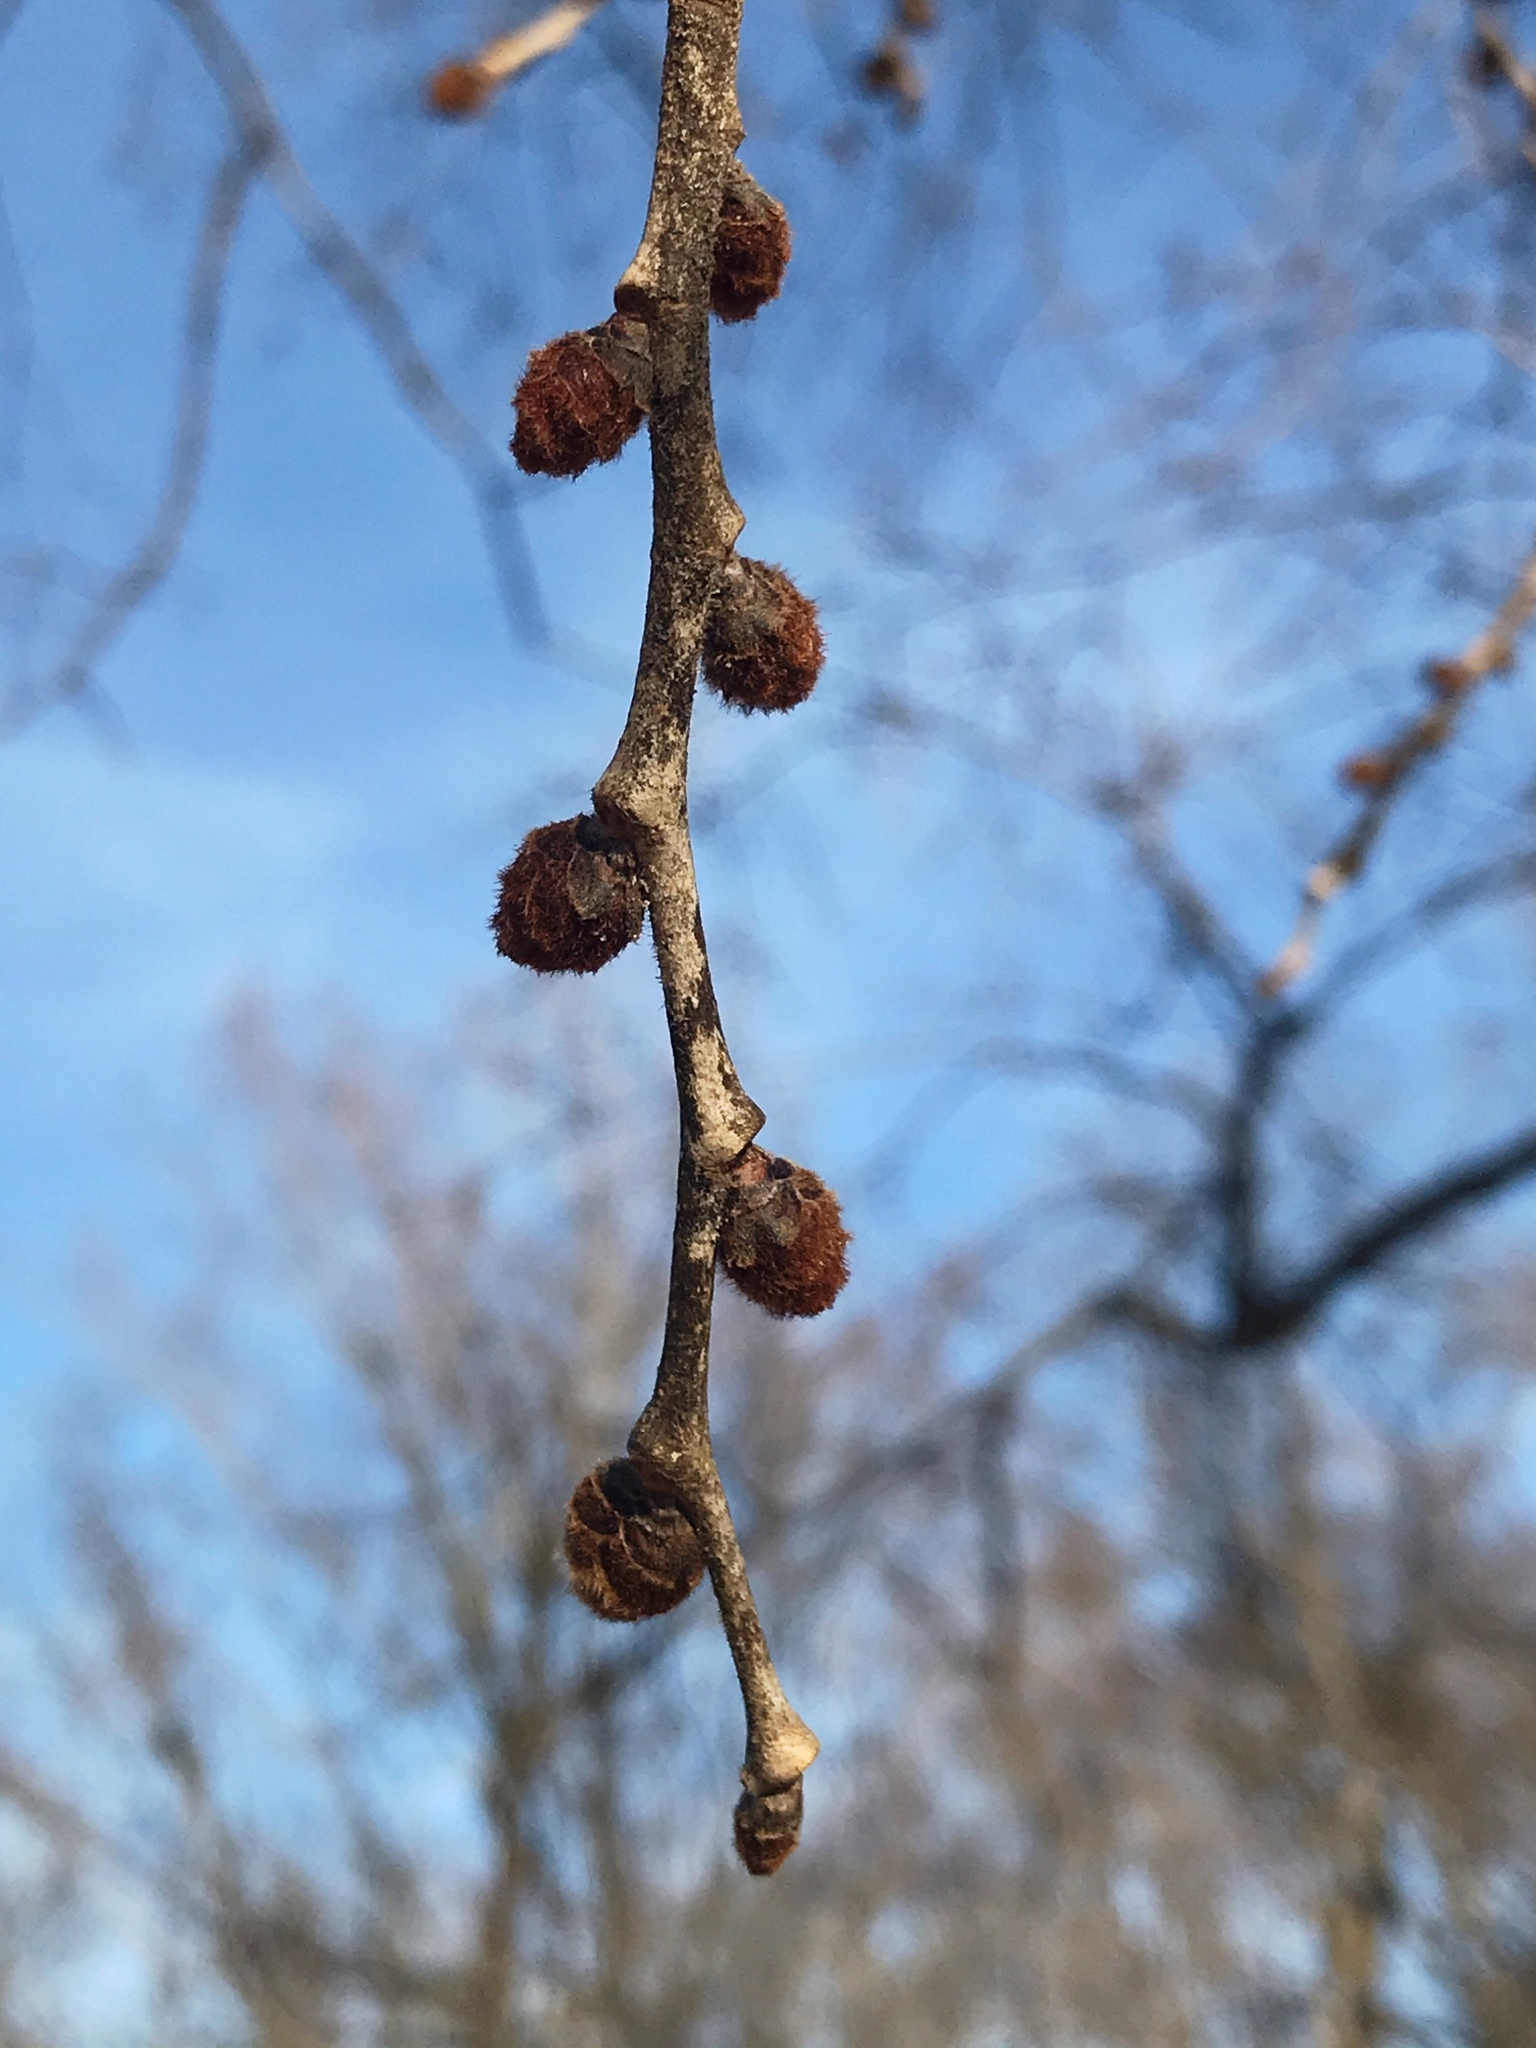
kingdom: Plantae
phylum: Tracheophyta
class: Magnoliopsida
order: Rosales
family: Ulmaceae
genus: Ulmus
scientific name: Ulmus rubra
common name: Slippery elm
